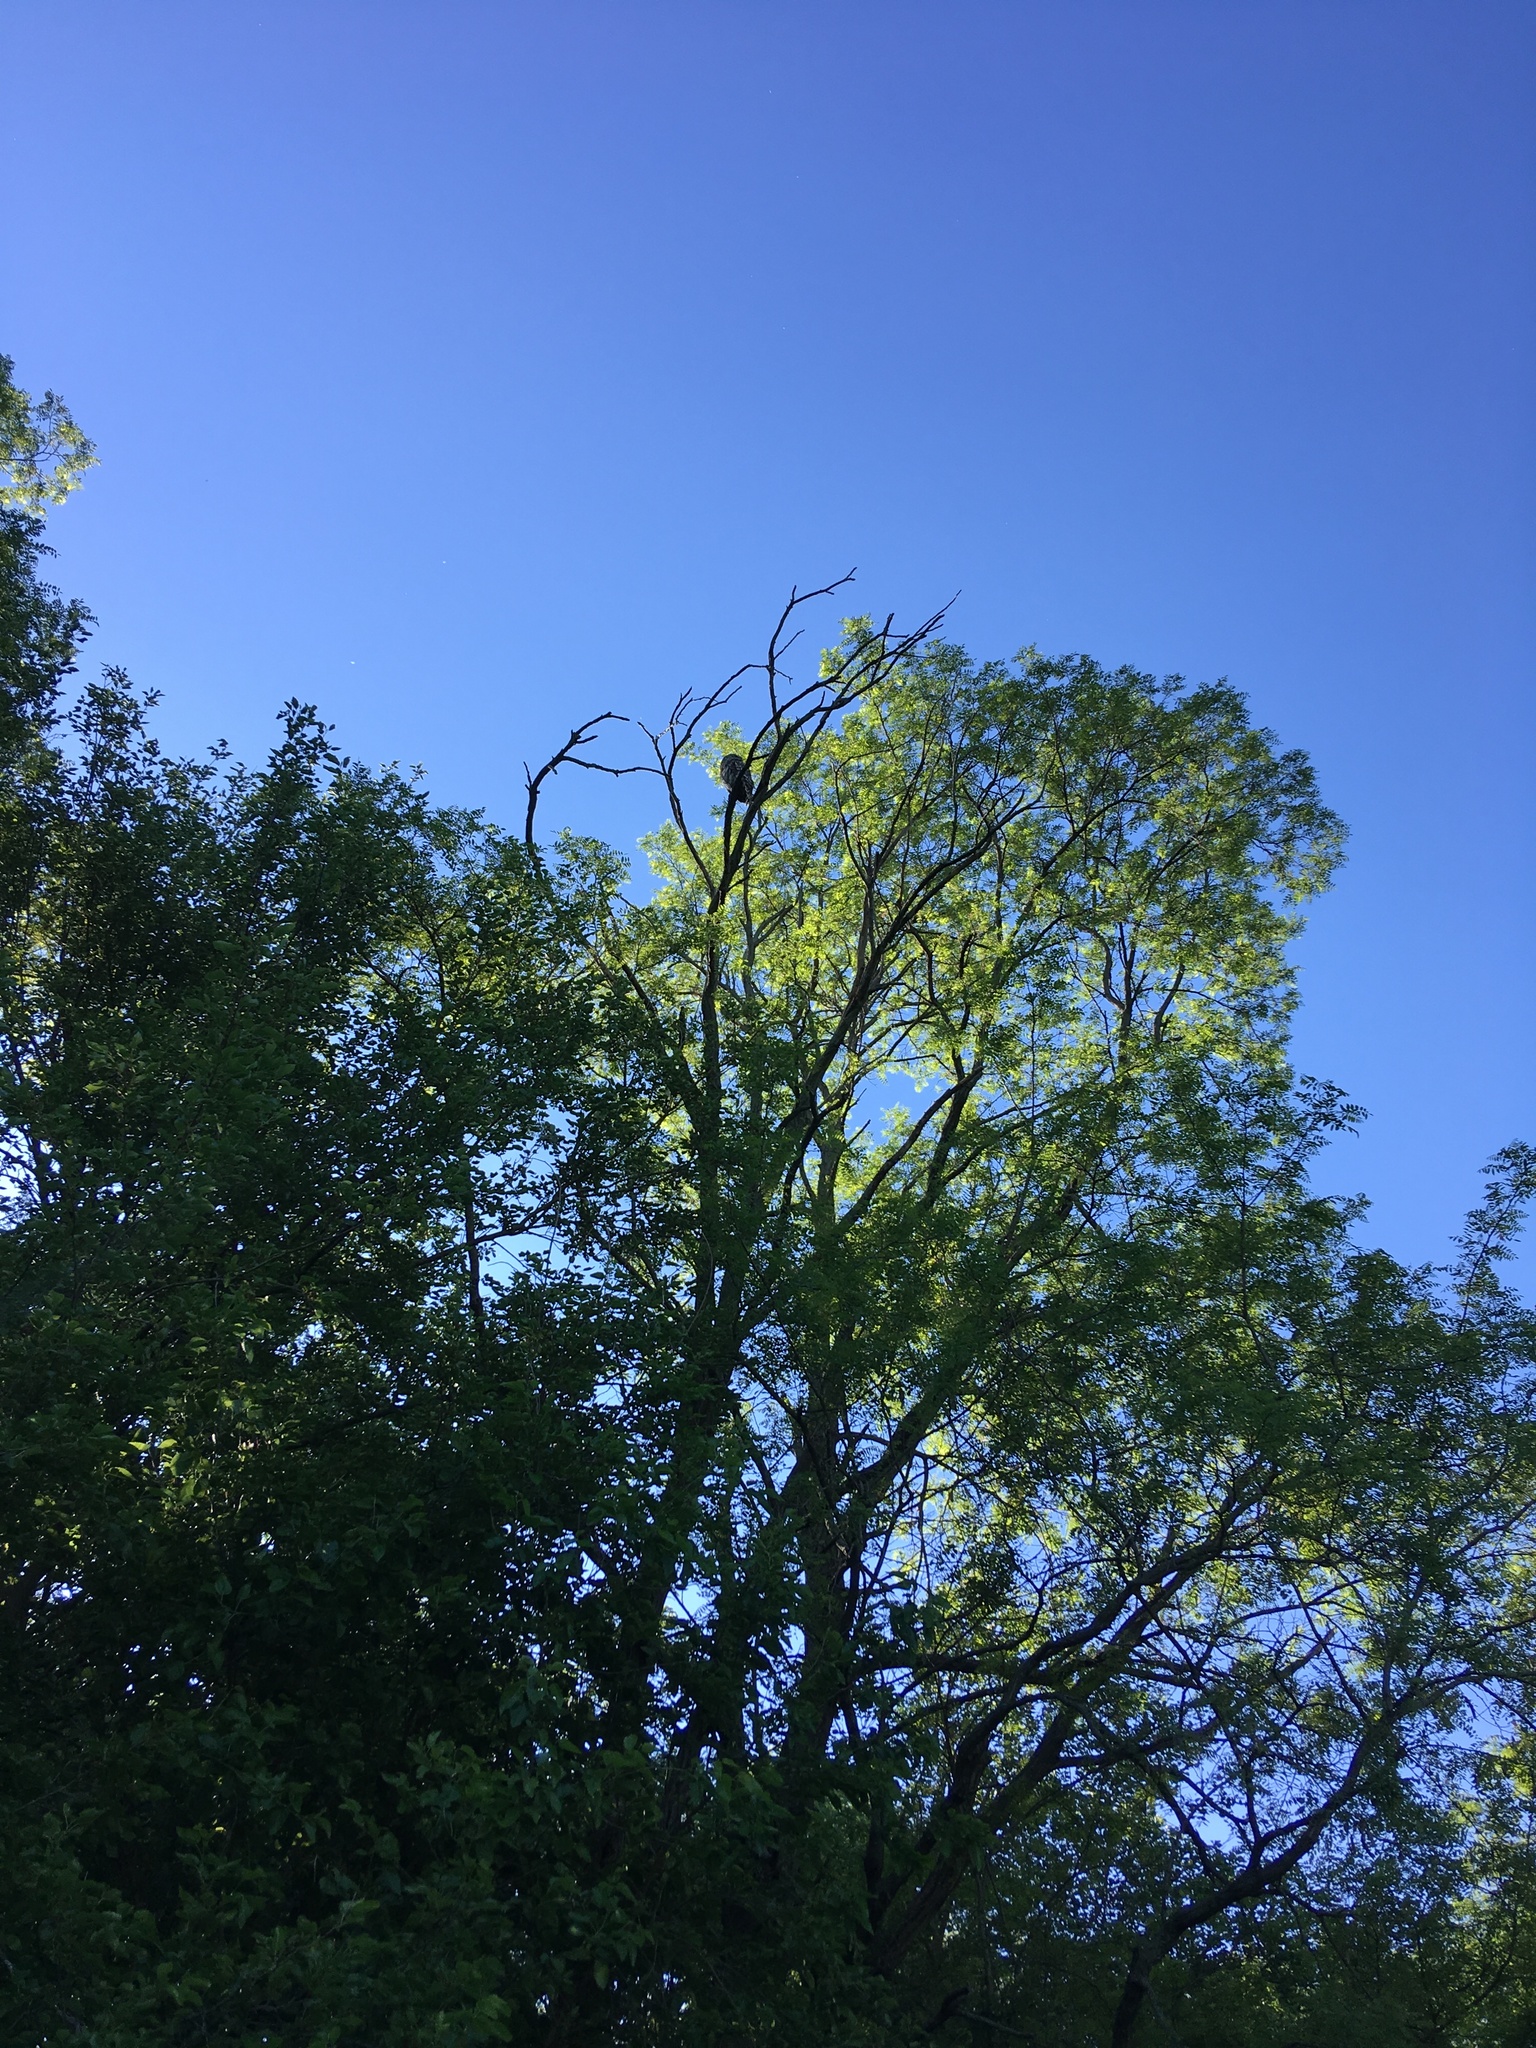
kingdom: Animalia
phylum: Chordata
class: Aves
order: Strigiformes
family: Strigidae
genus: Strix
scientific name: Strix varia
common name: Barred owl
